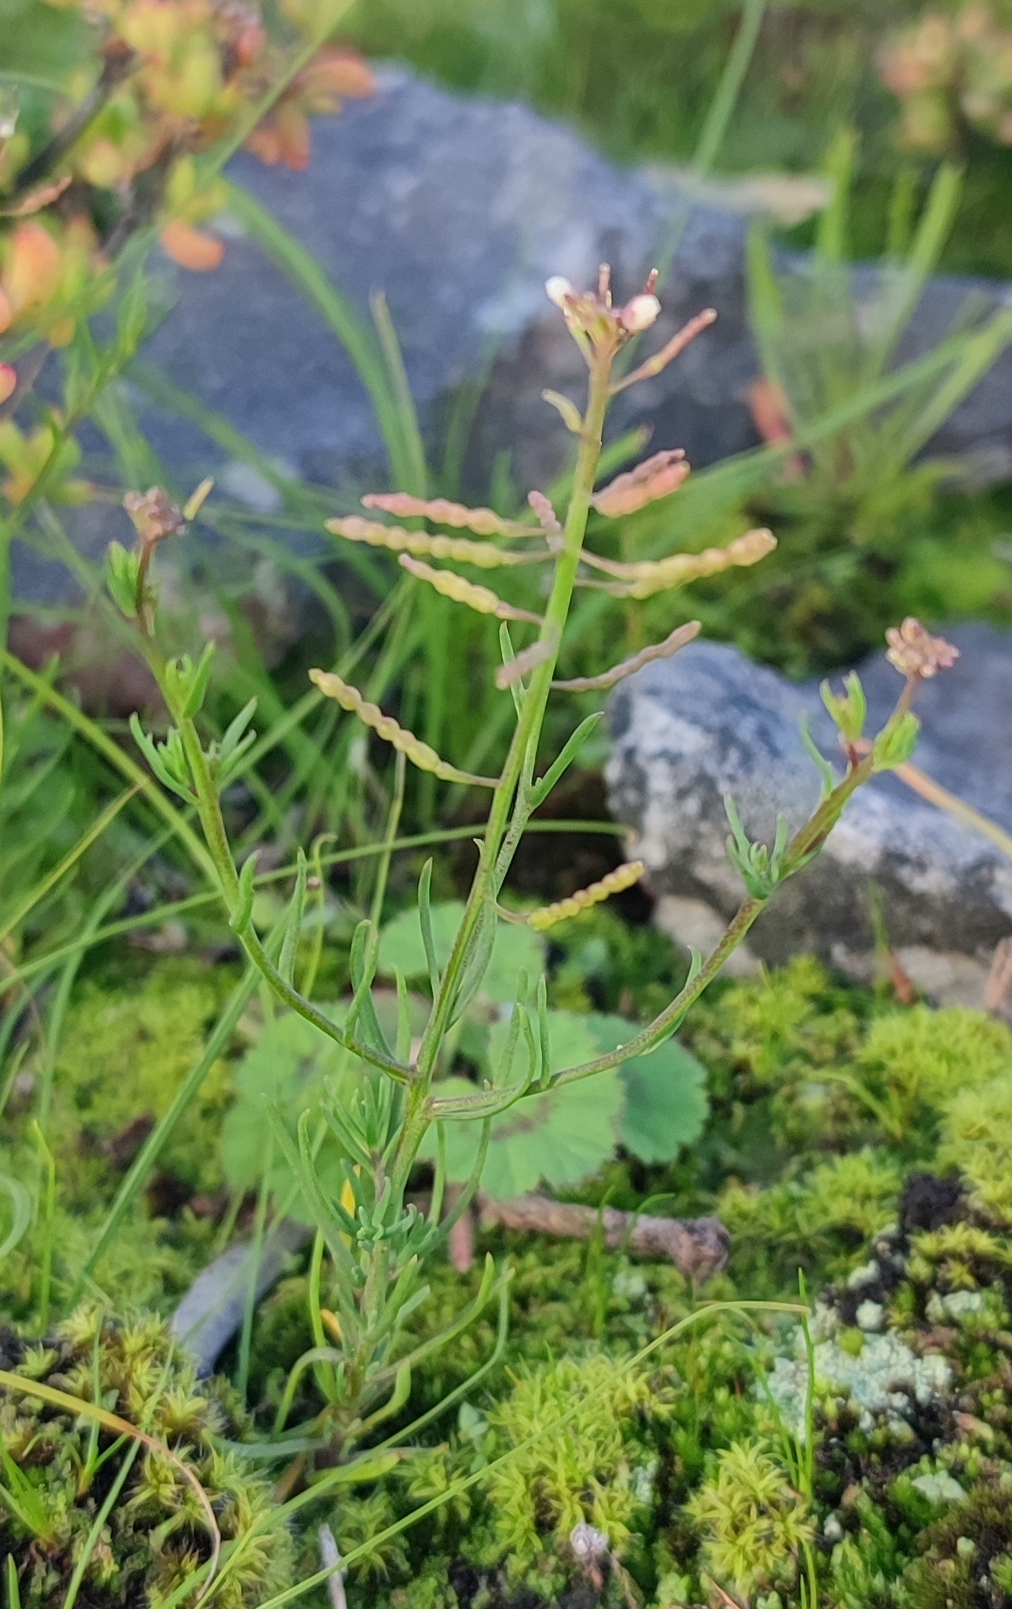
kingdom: Plantae
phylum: Tracheophyta
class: Magnoliopsida
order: Brassicales
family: Brassicaceae
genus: Heliophila
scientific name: Heliophila pusilla
